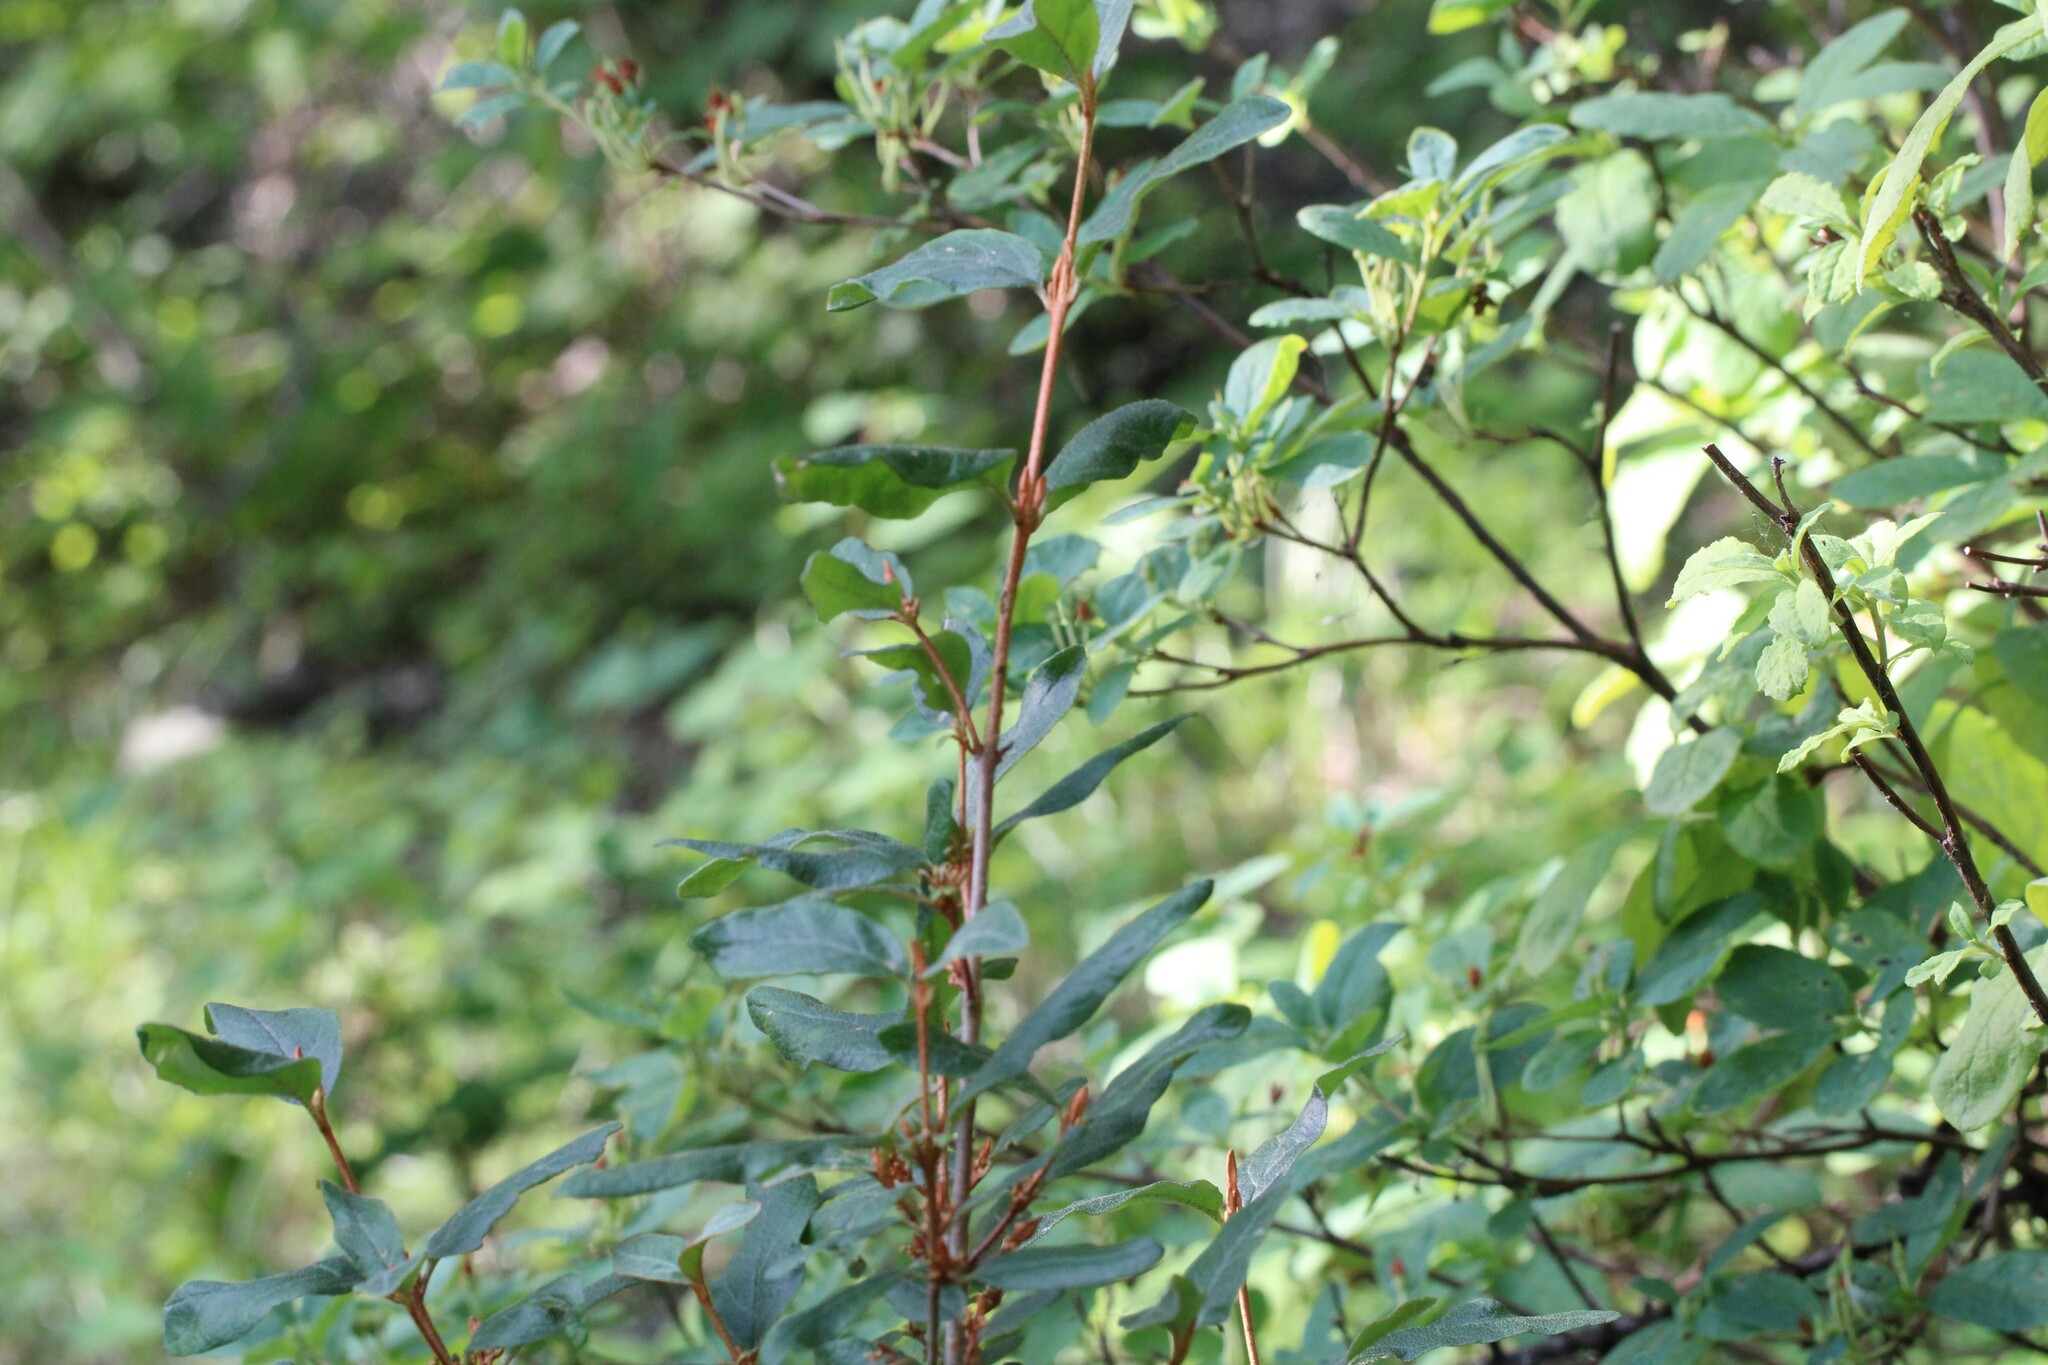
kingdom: Plantae
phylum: Tracheophyta
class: Magnoliopsida
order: Rosales
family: Elaeagnaceae
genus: Shepherdia
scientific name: Shepherdia canadensis
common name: Soapberry
